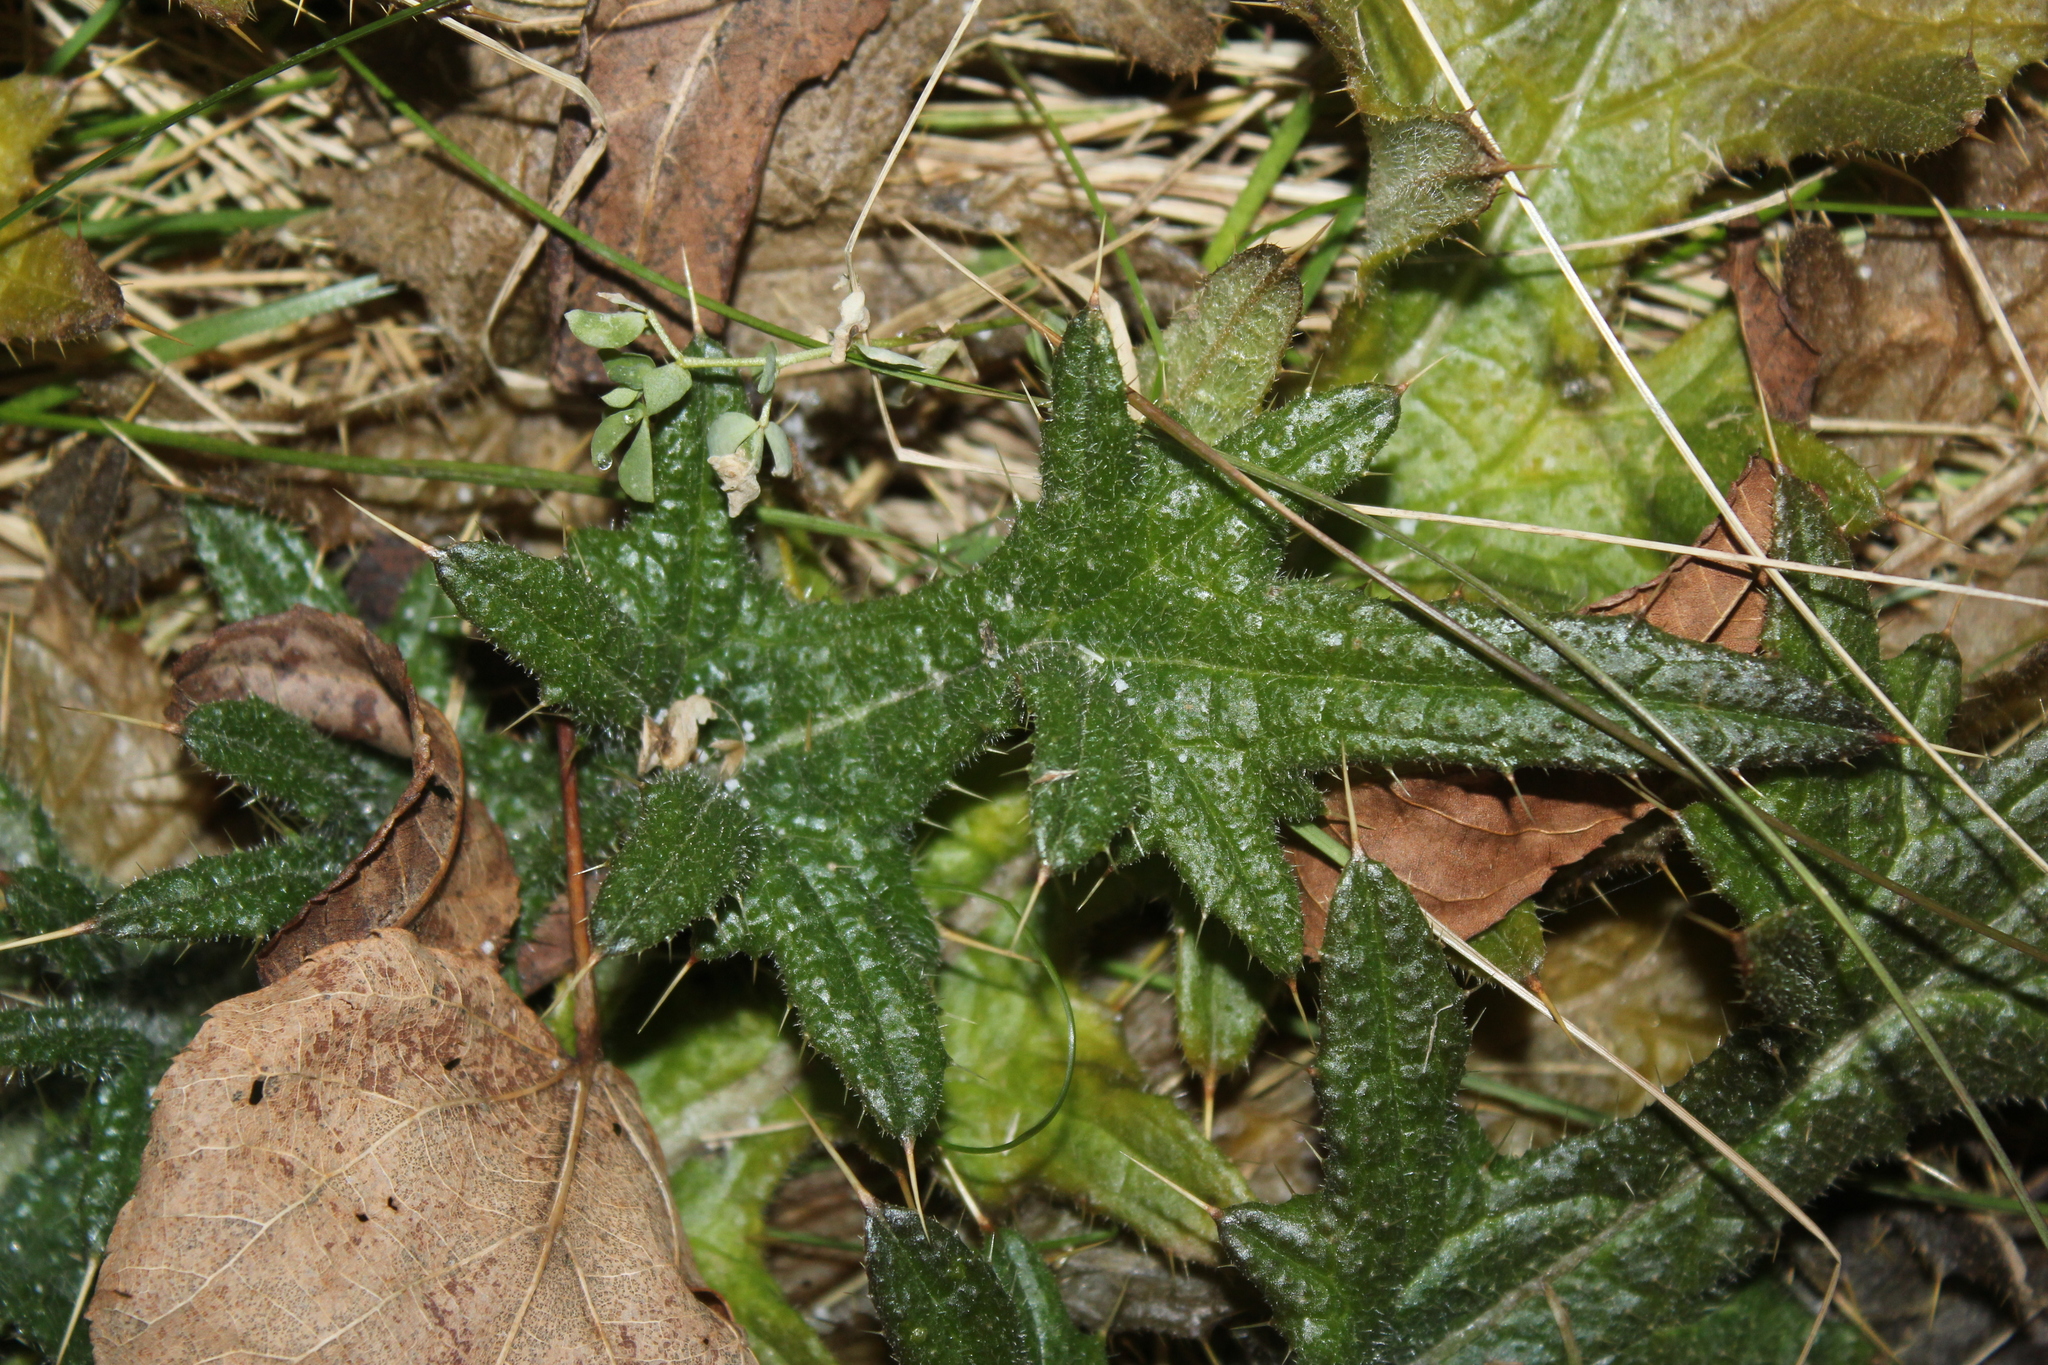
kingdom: Plantae
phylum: Tracheophyta
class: Magnoliopsida
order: Asterales
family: Asteraceae
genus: Cirsium
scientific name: Cirsium vulgare
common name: Bull thistle
